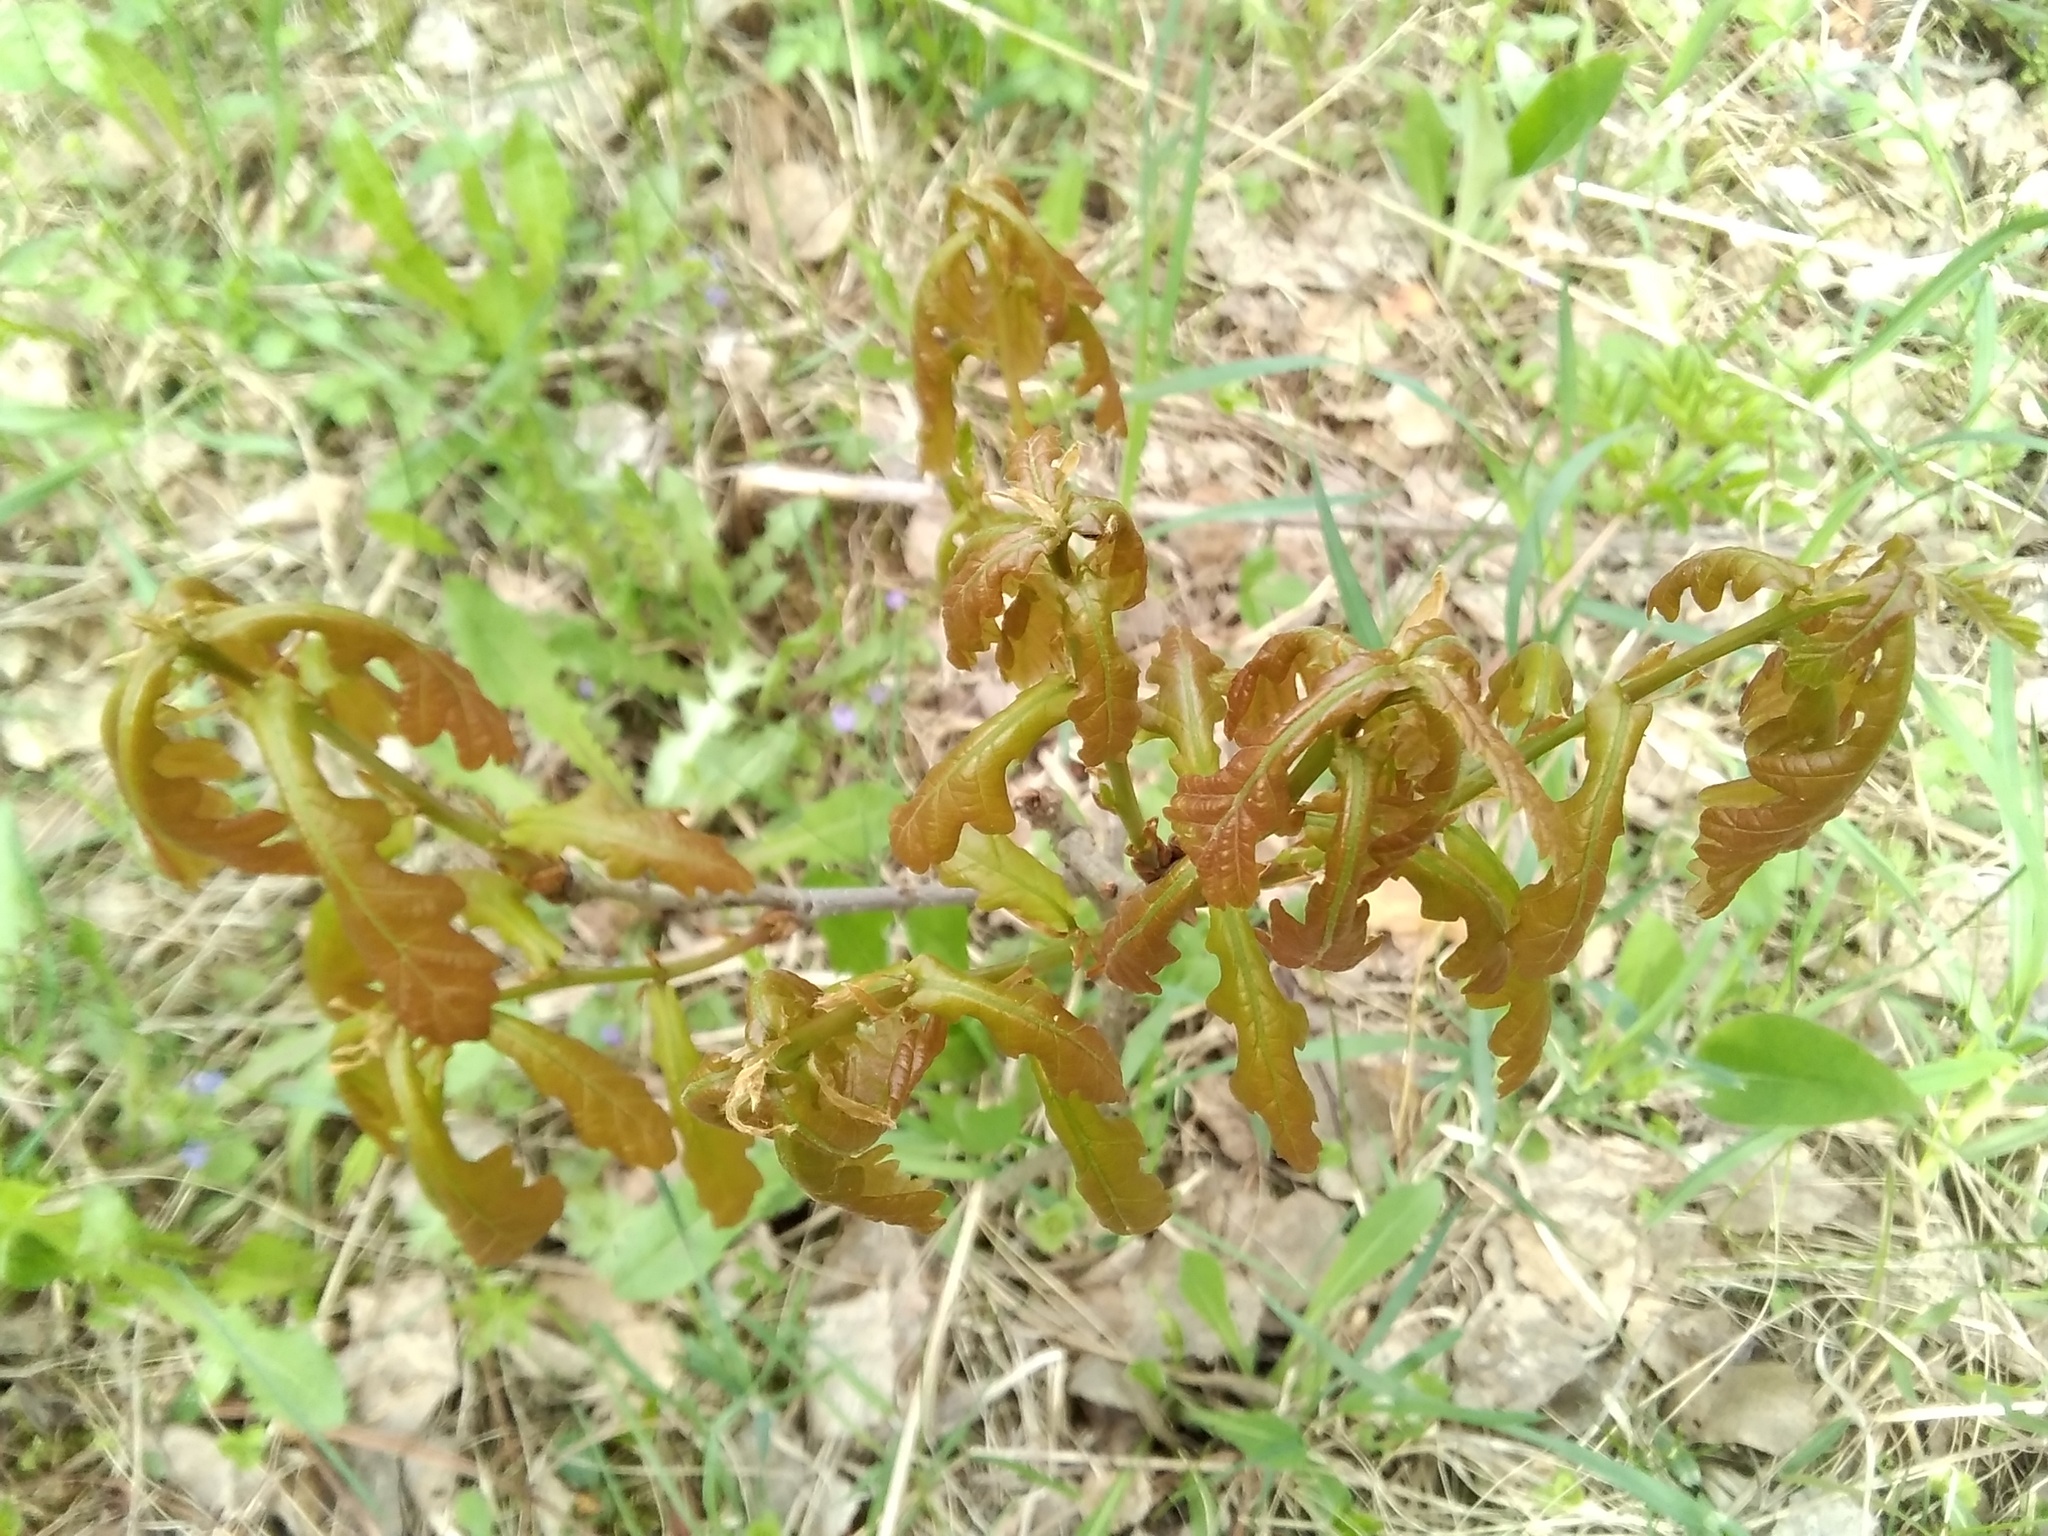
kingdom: Plantae
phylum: Tracheophyta
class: Magnoliopsida
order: Fagales
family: Fagaceae
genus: Quercus
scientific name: Quercus robur
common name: Pedunculate oak
